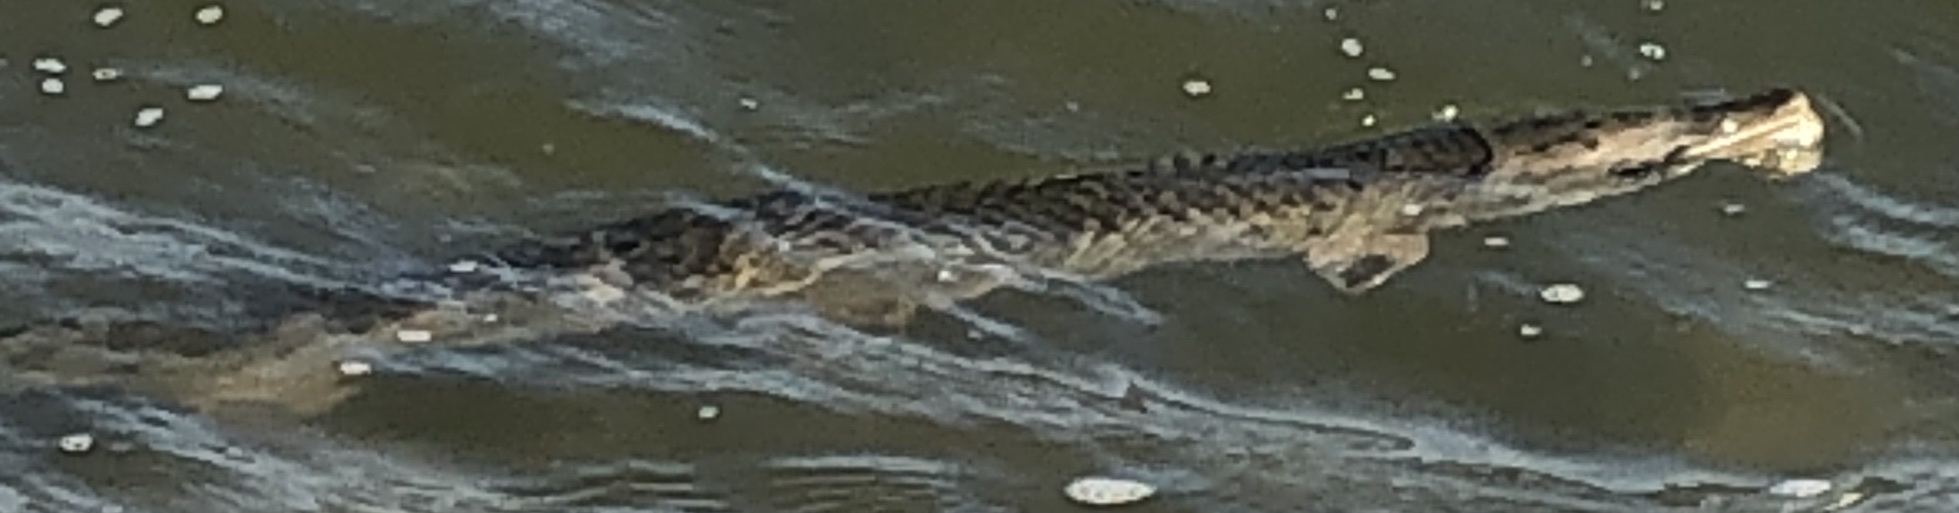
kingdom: Animalia
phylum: Chordata
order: Lepisosteiformes
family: Lepisosteidae
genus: Lepisosteus
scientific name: Lepisosteus oculatus
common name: Spotted gar
